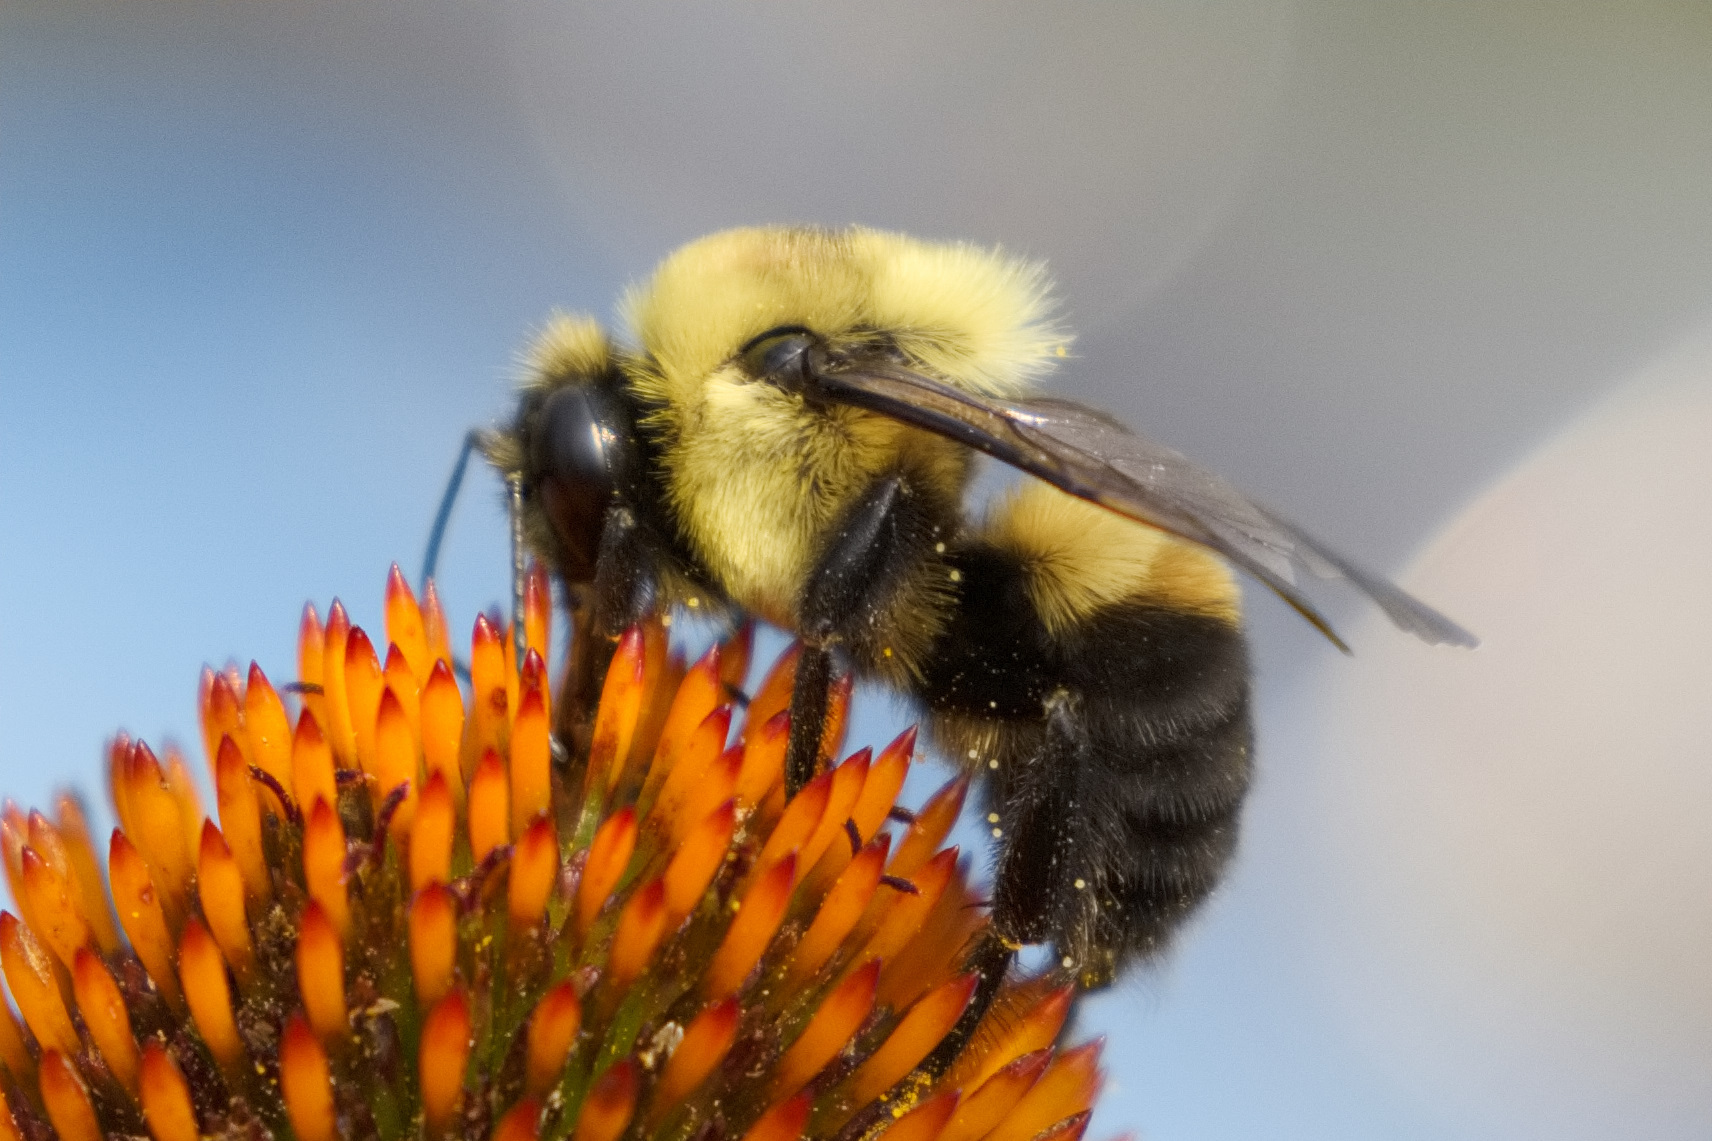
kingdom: Animalia
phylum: Arthropoda
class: Insecta
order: Hymenoptera
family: Apidae
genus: Bombus
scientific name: Bombus griseocollis
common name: Brown-belted bumble bee
